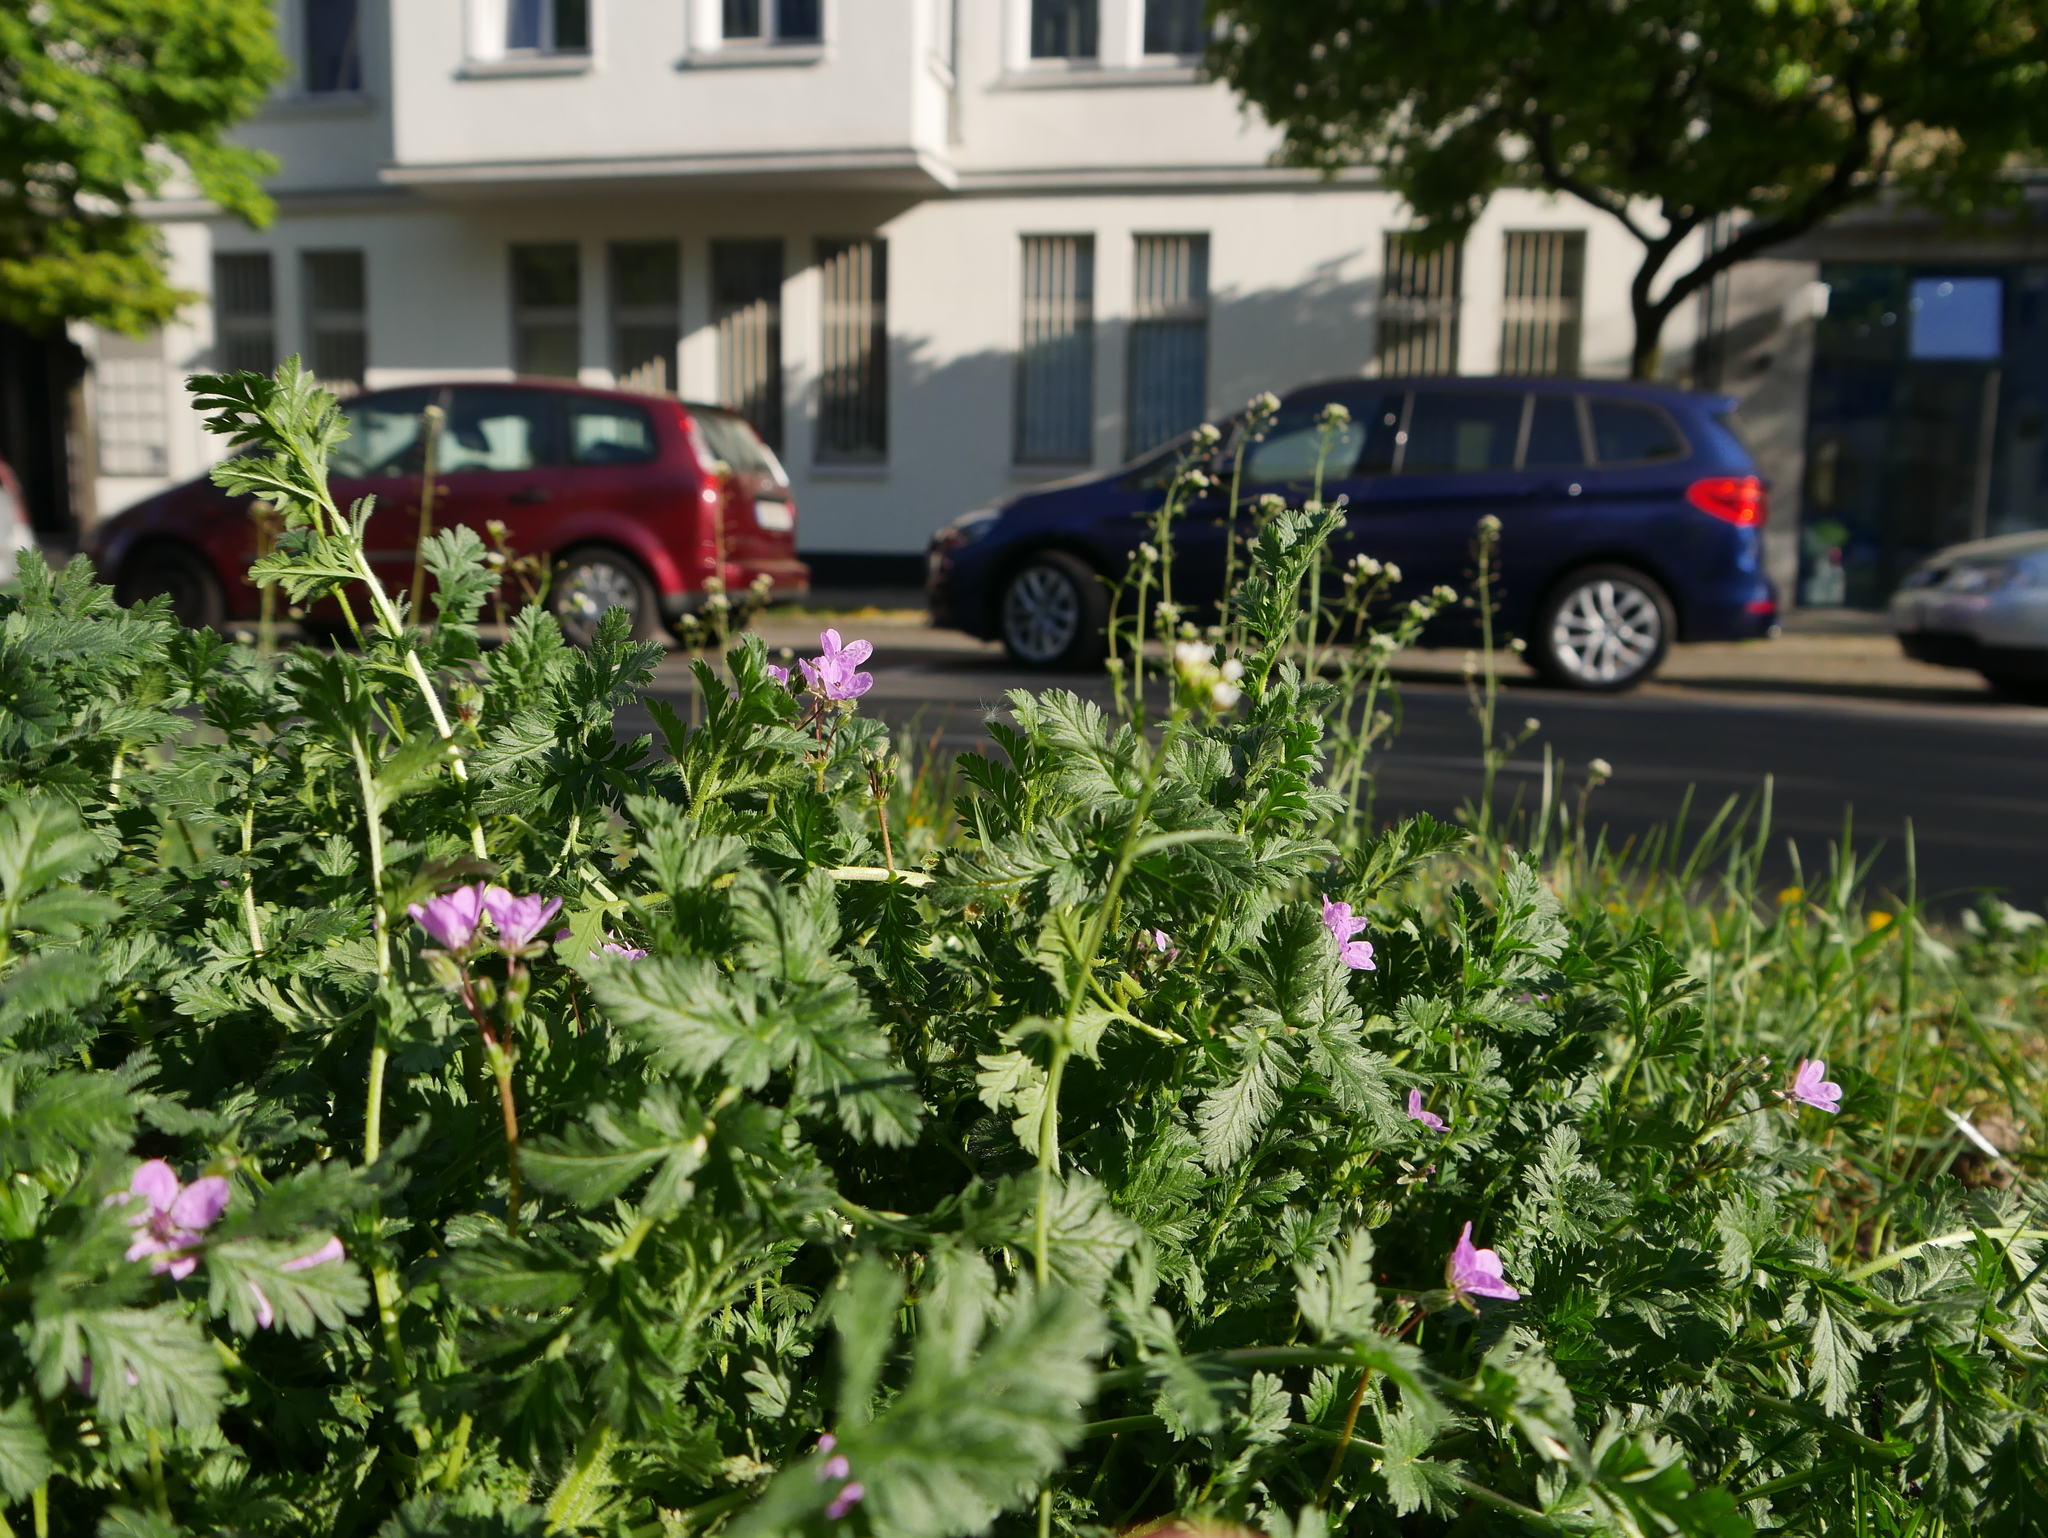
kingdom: Plantae
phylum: Tracheophyta
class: Magnoliopsida
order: Geraniales
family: Geraniaceae
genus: Erodium
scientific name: Erodium cicutarium
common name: Common stork's-bill
